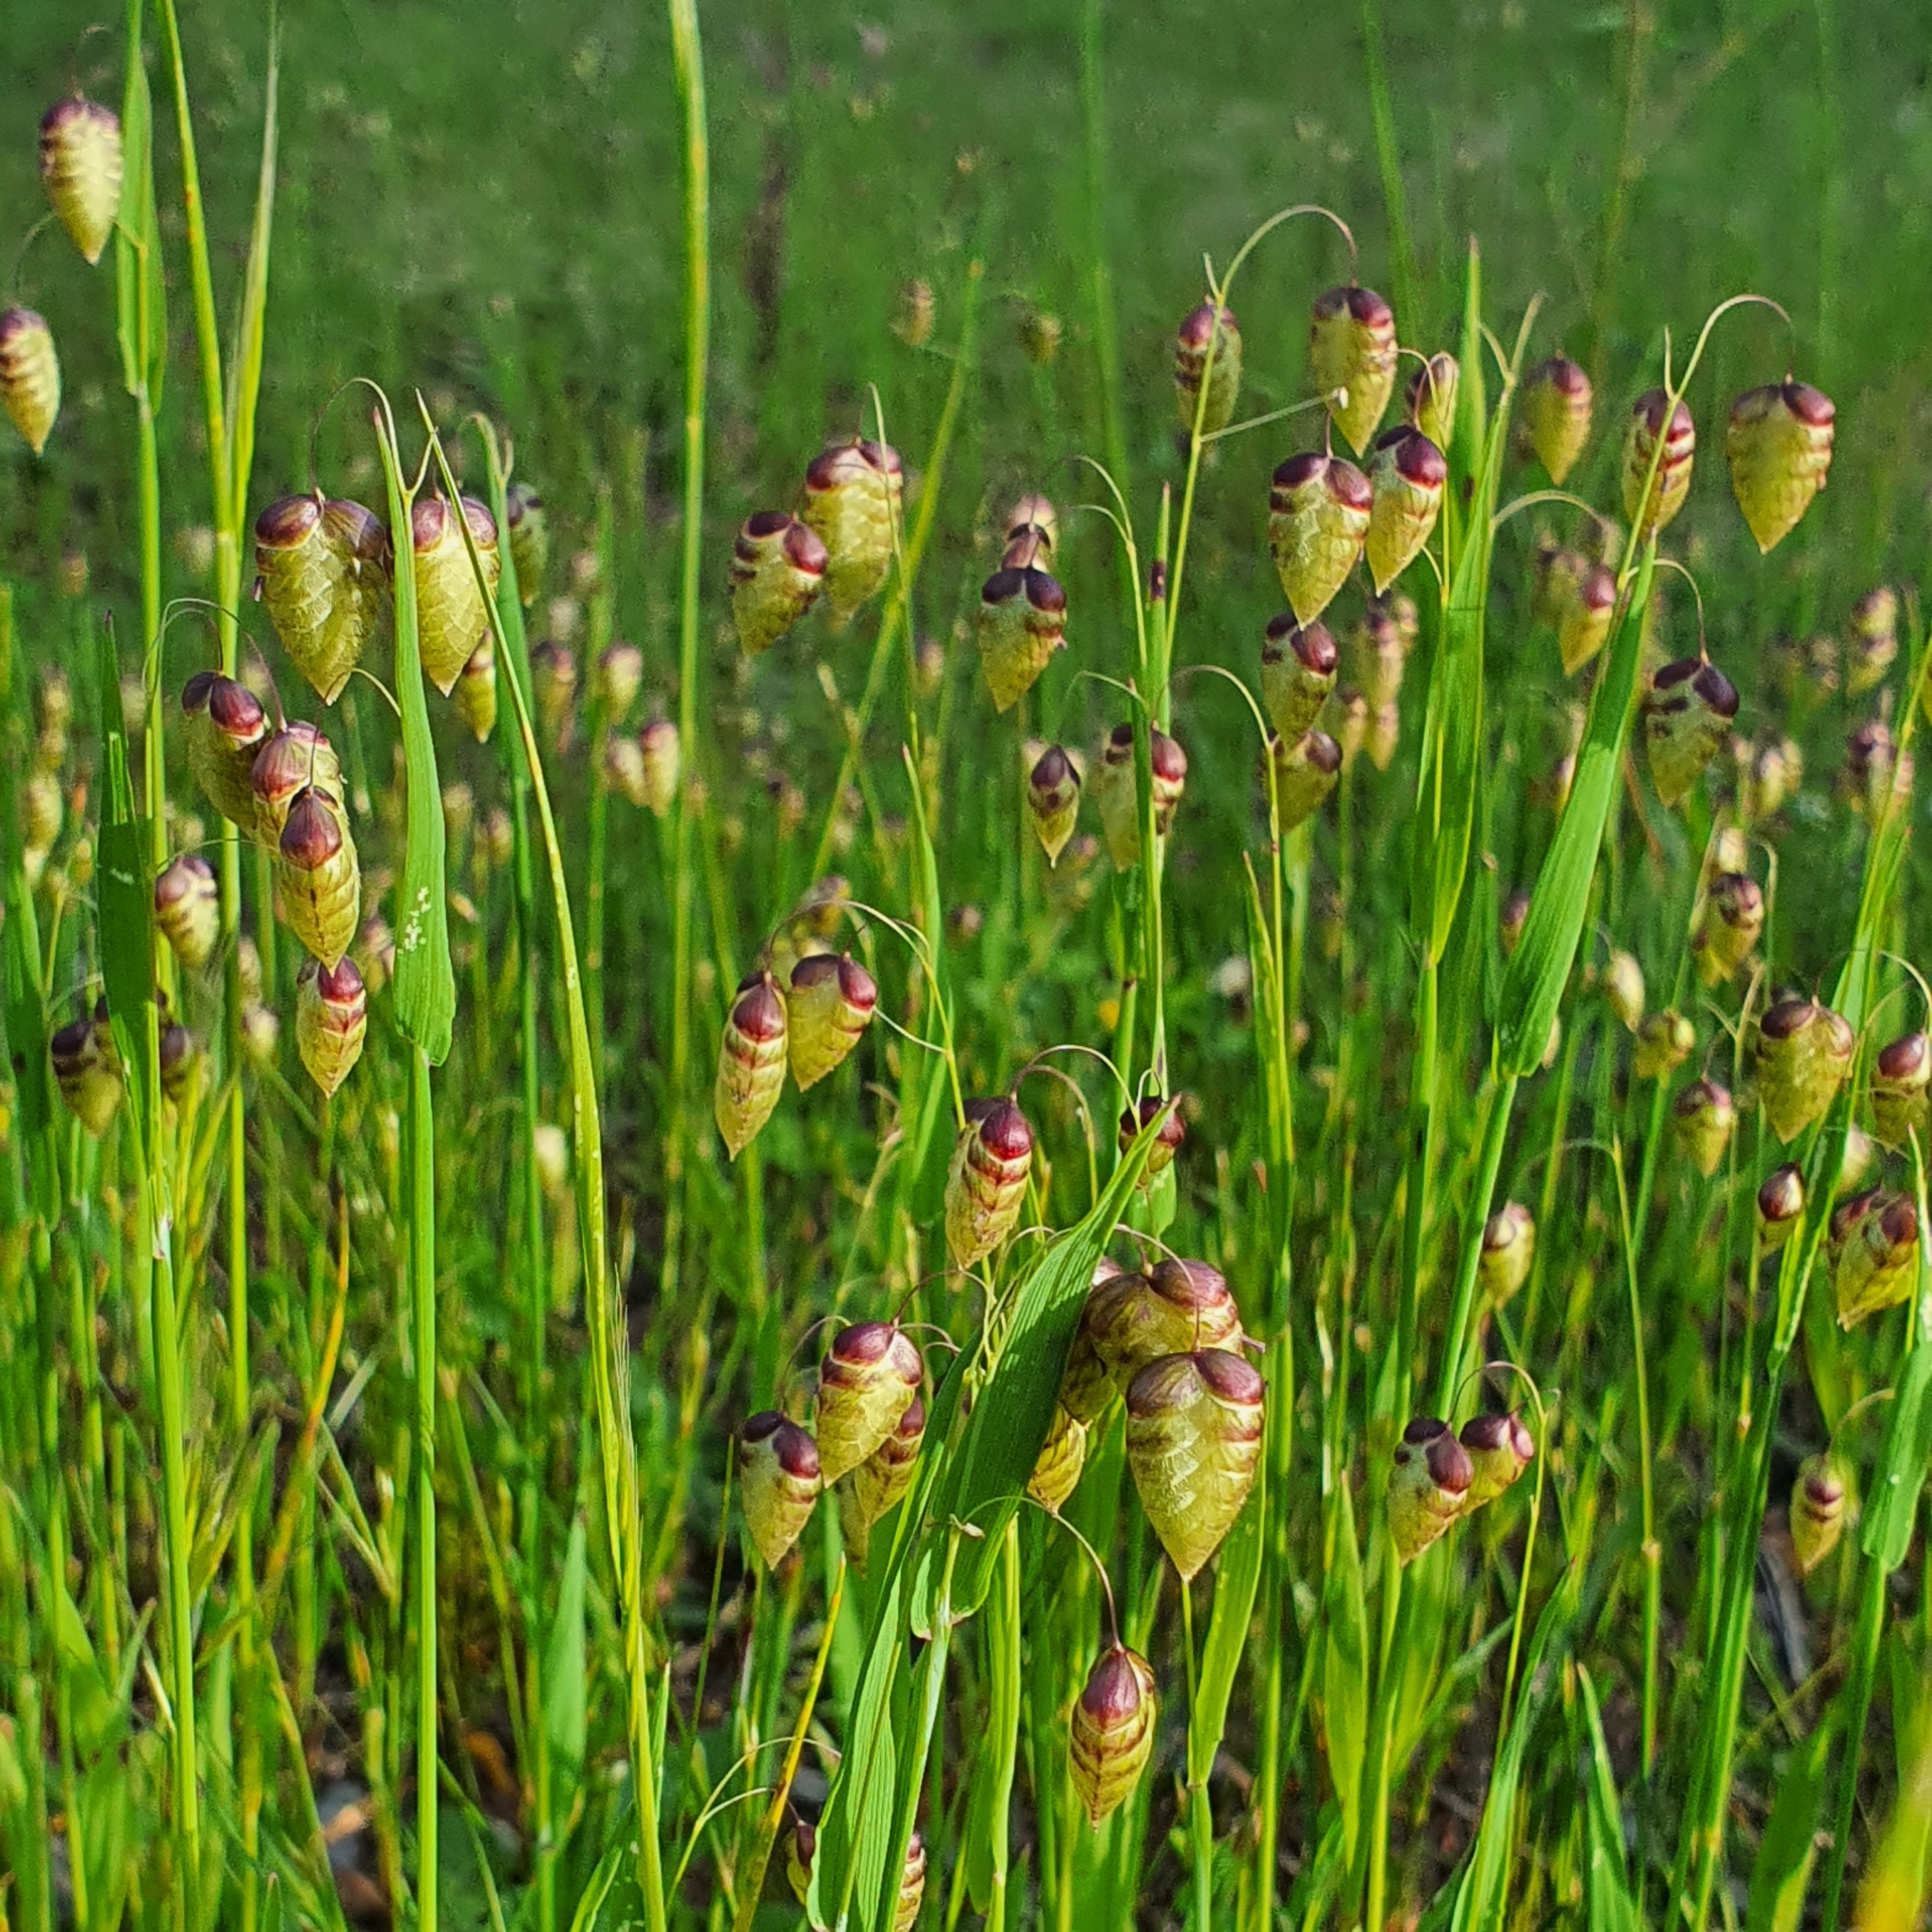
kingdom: Plantae
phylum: Tracheophyta
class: Liliopsida
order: Poales
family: Poaceae
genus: Briza
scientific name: Briza maxima
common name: Big quakinggrass
